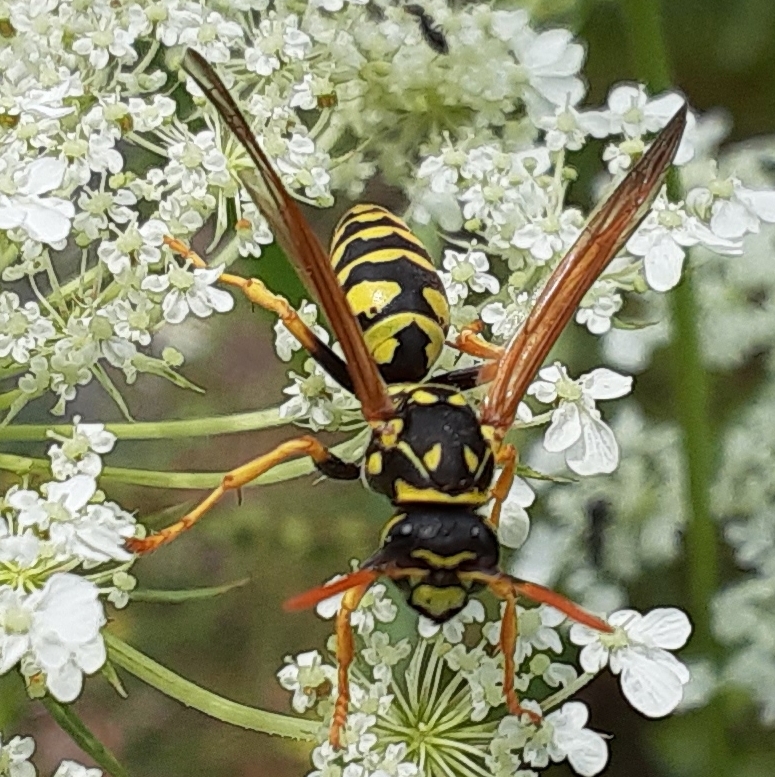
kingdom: Animalia
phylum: Arthropoda
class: Insecta
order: Hymenoptera
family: Eumenidae
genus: Polistes
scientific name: Polistes dominula
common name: Paper wasp
